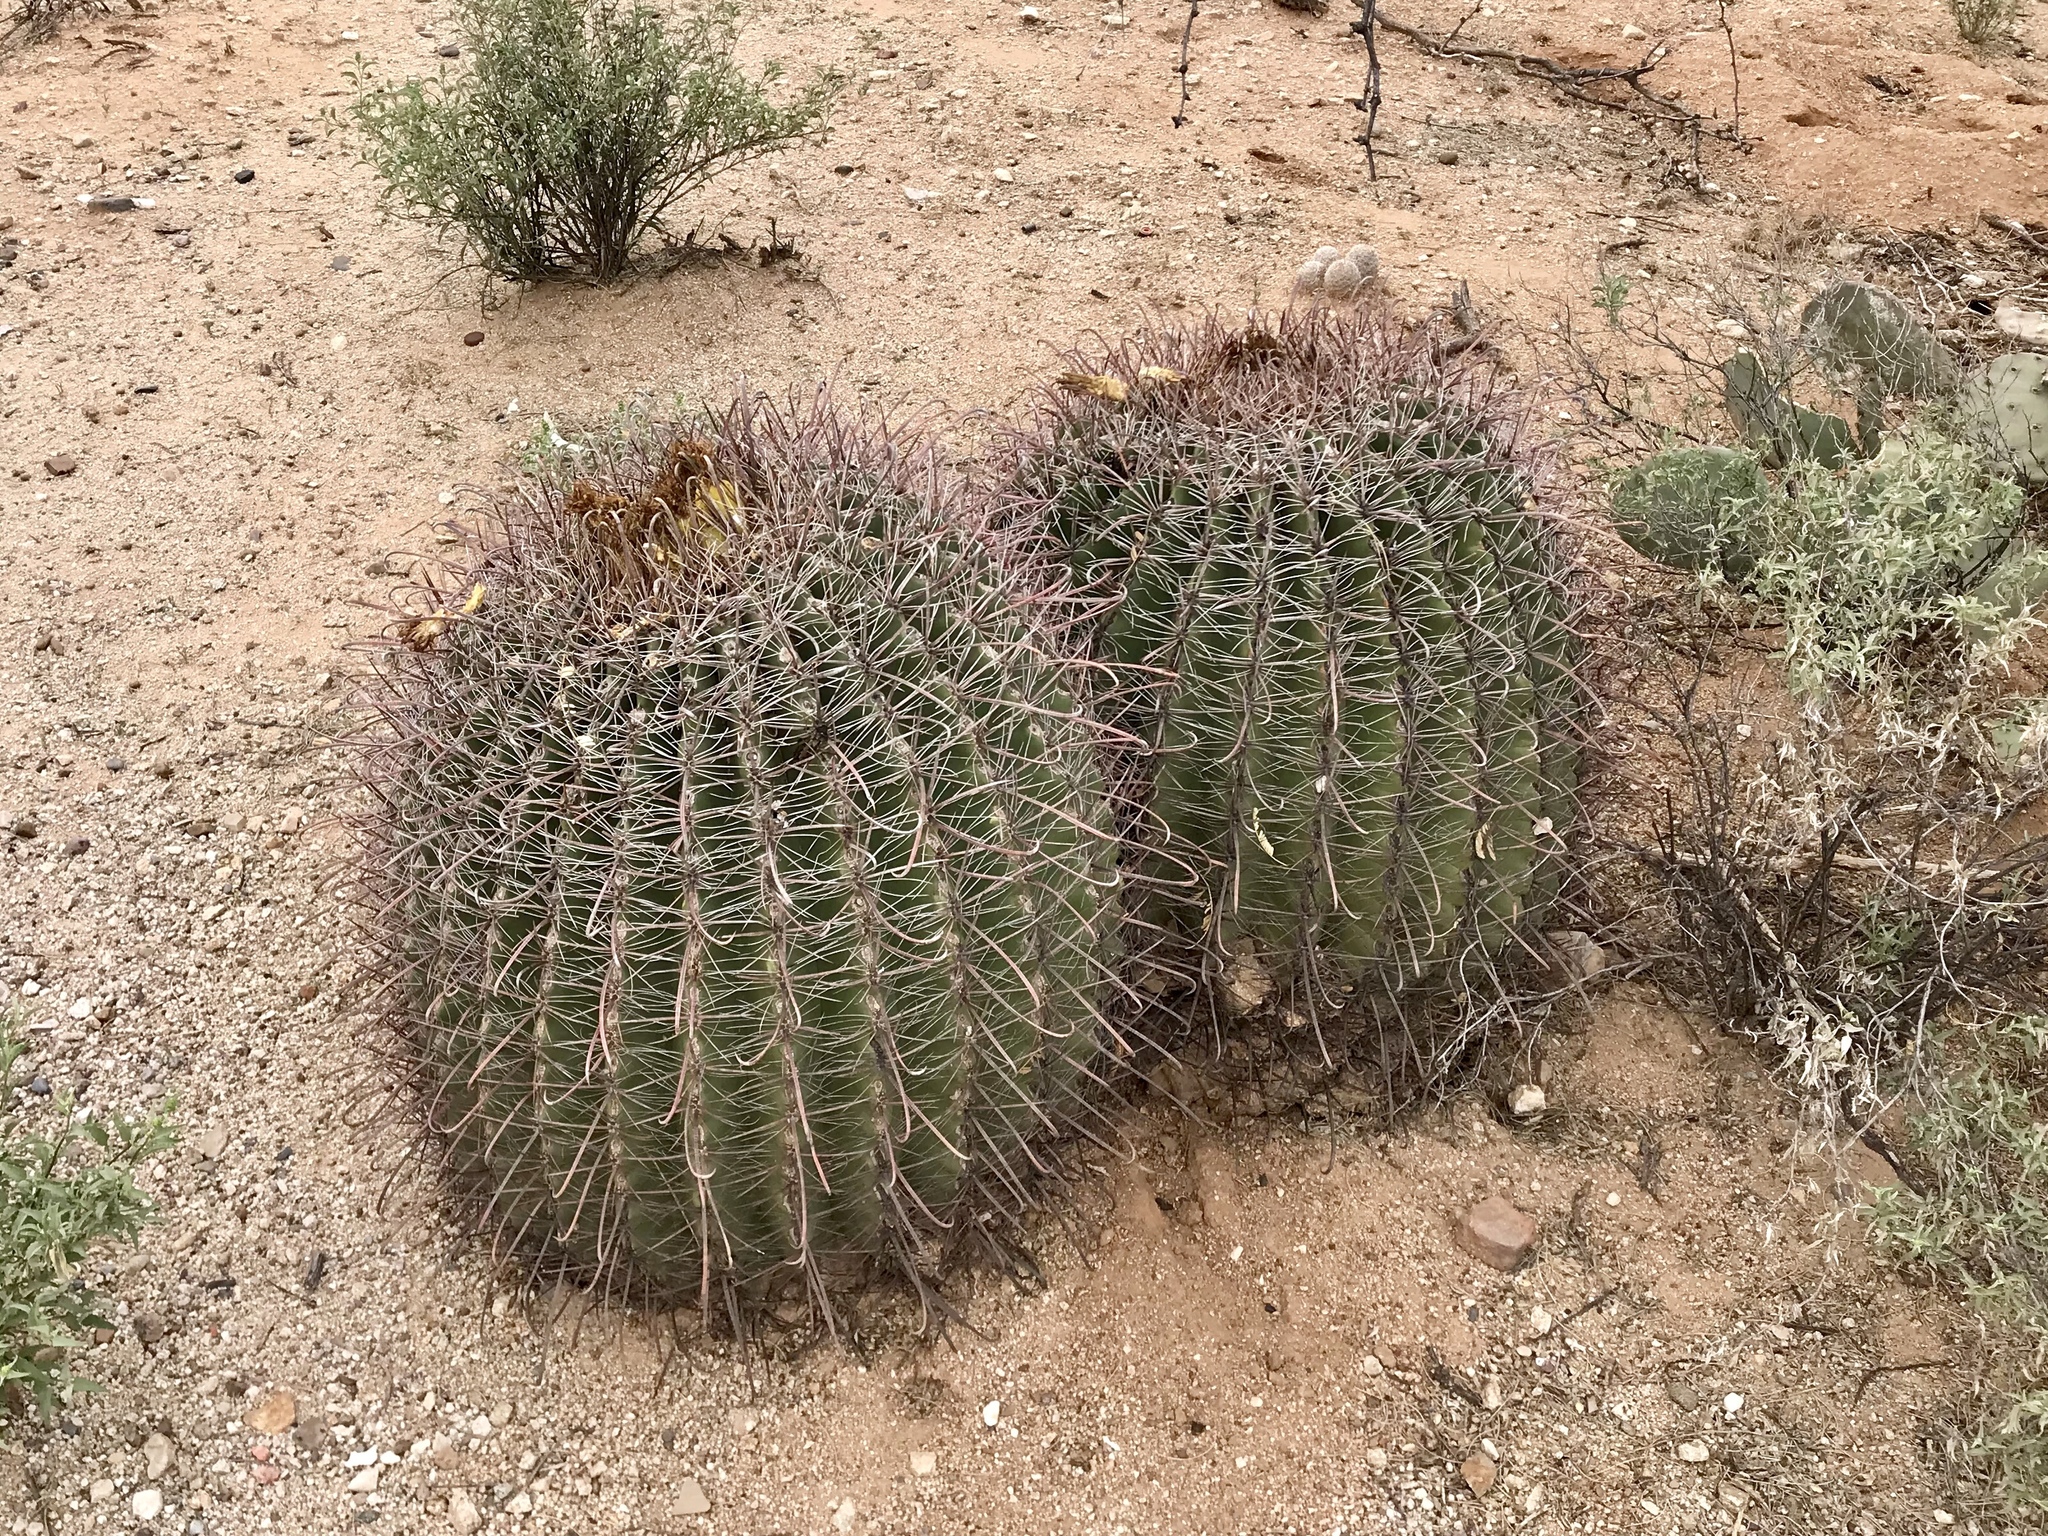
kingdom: Plantae
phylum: Tracheophyta
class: Magnoliopsida
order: Caryophyllales
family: Cactaceae
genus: Ferocactus
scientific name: Ferocactus wislizeni
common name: Candy barrel cactus
